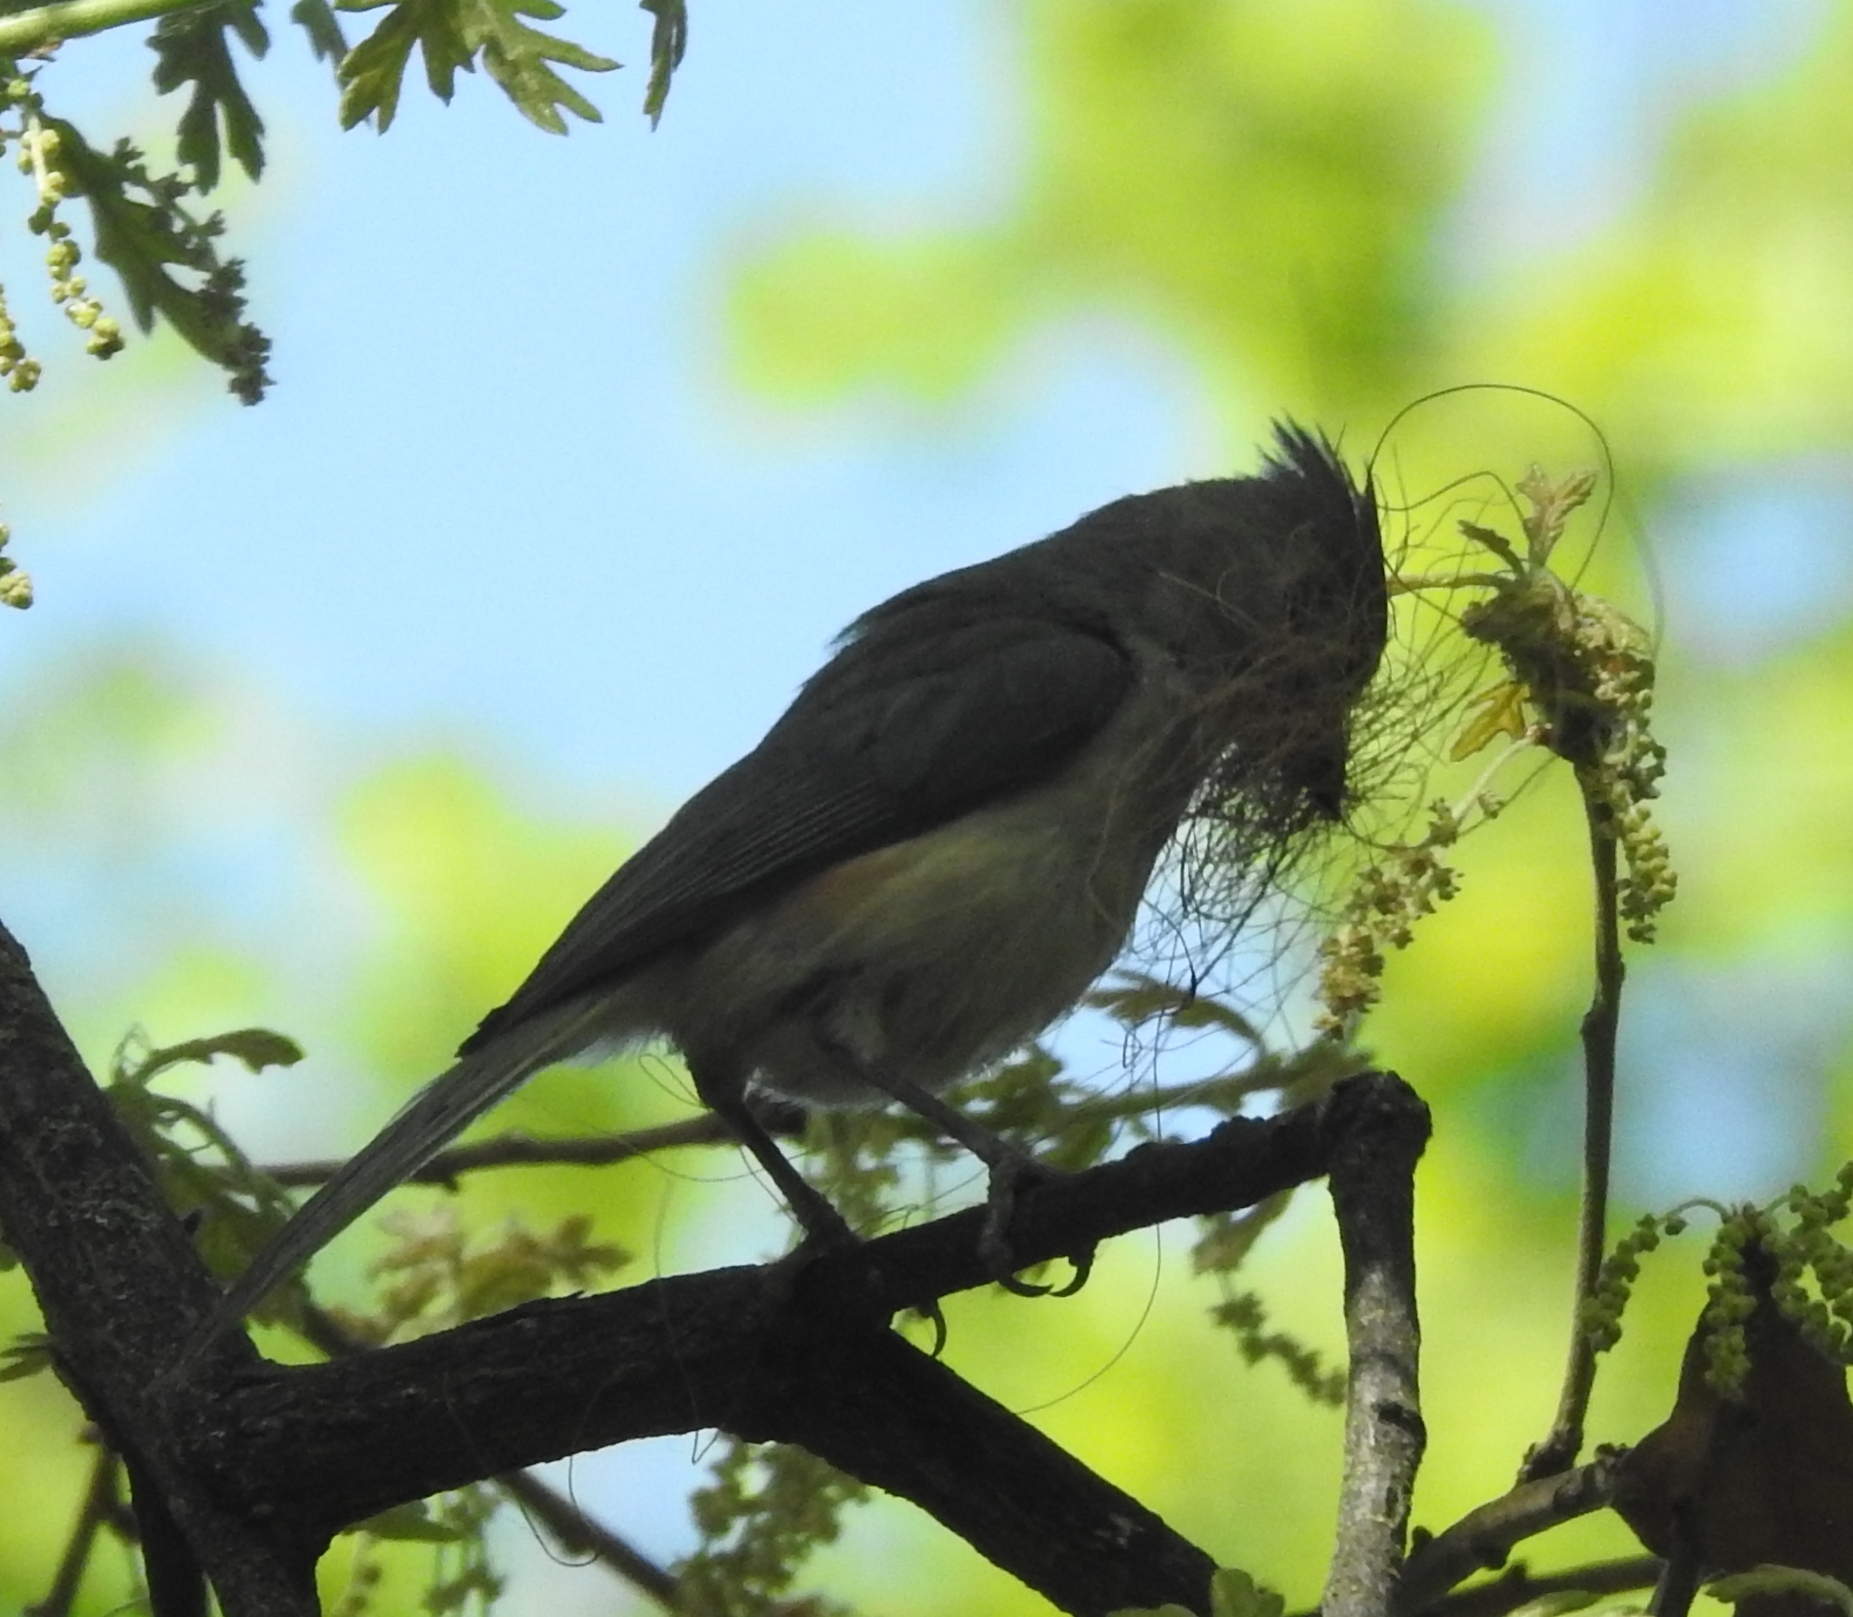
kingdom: Animalia
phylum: Chordata
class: Aves
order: Passeriformes
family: Paridae
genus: Baeolophus
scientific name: Baeolophus bicolor
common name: Tufted titmouse
